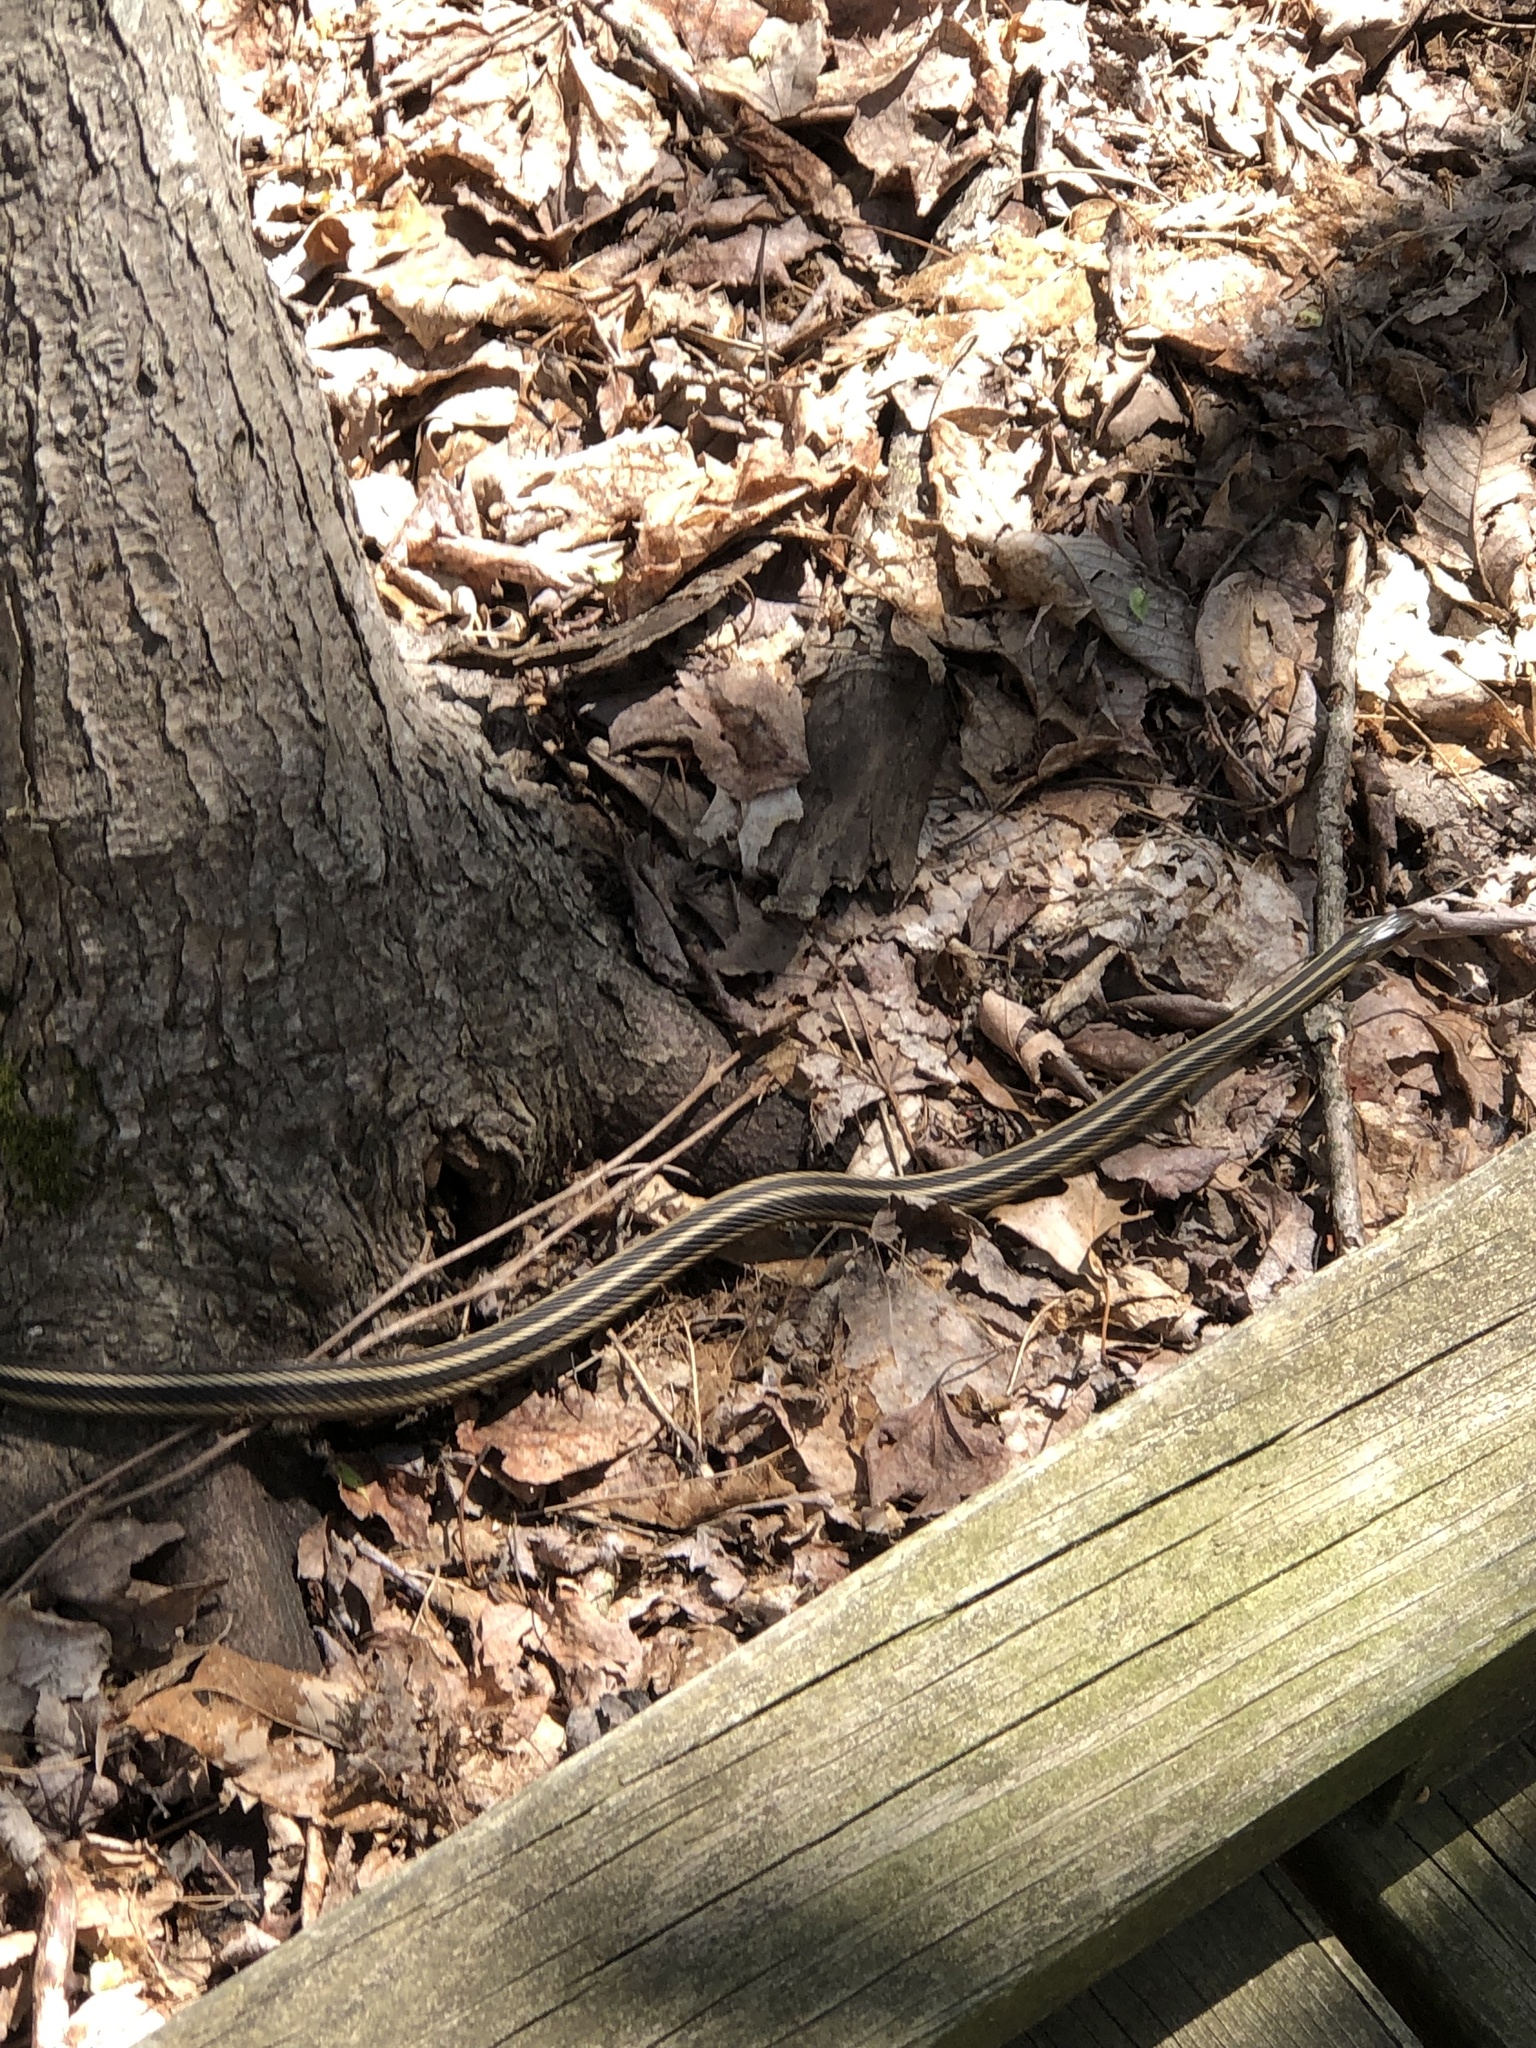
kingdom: Animalia
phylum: Chordata
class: Squamata
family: Colubridae
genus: Thamnophis
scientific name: Thamnophis sirtalis
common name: Common garter snake
